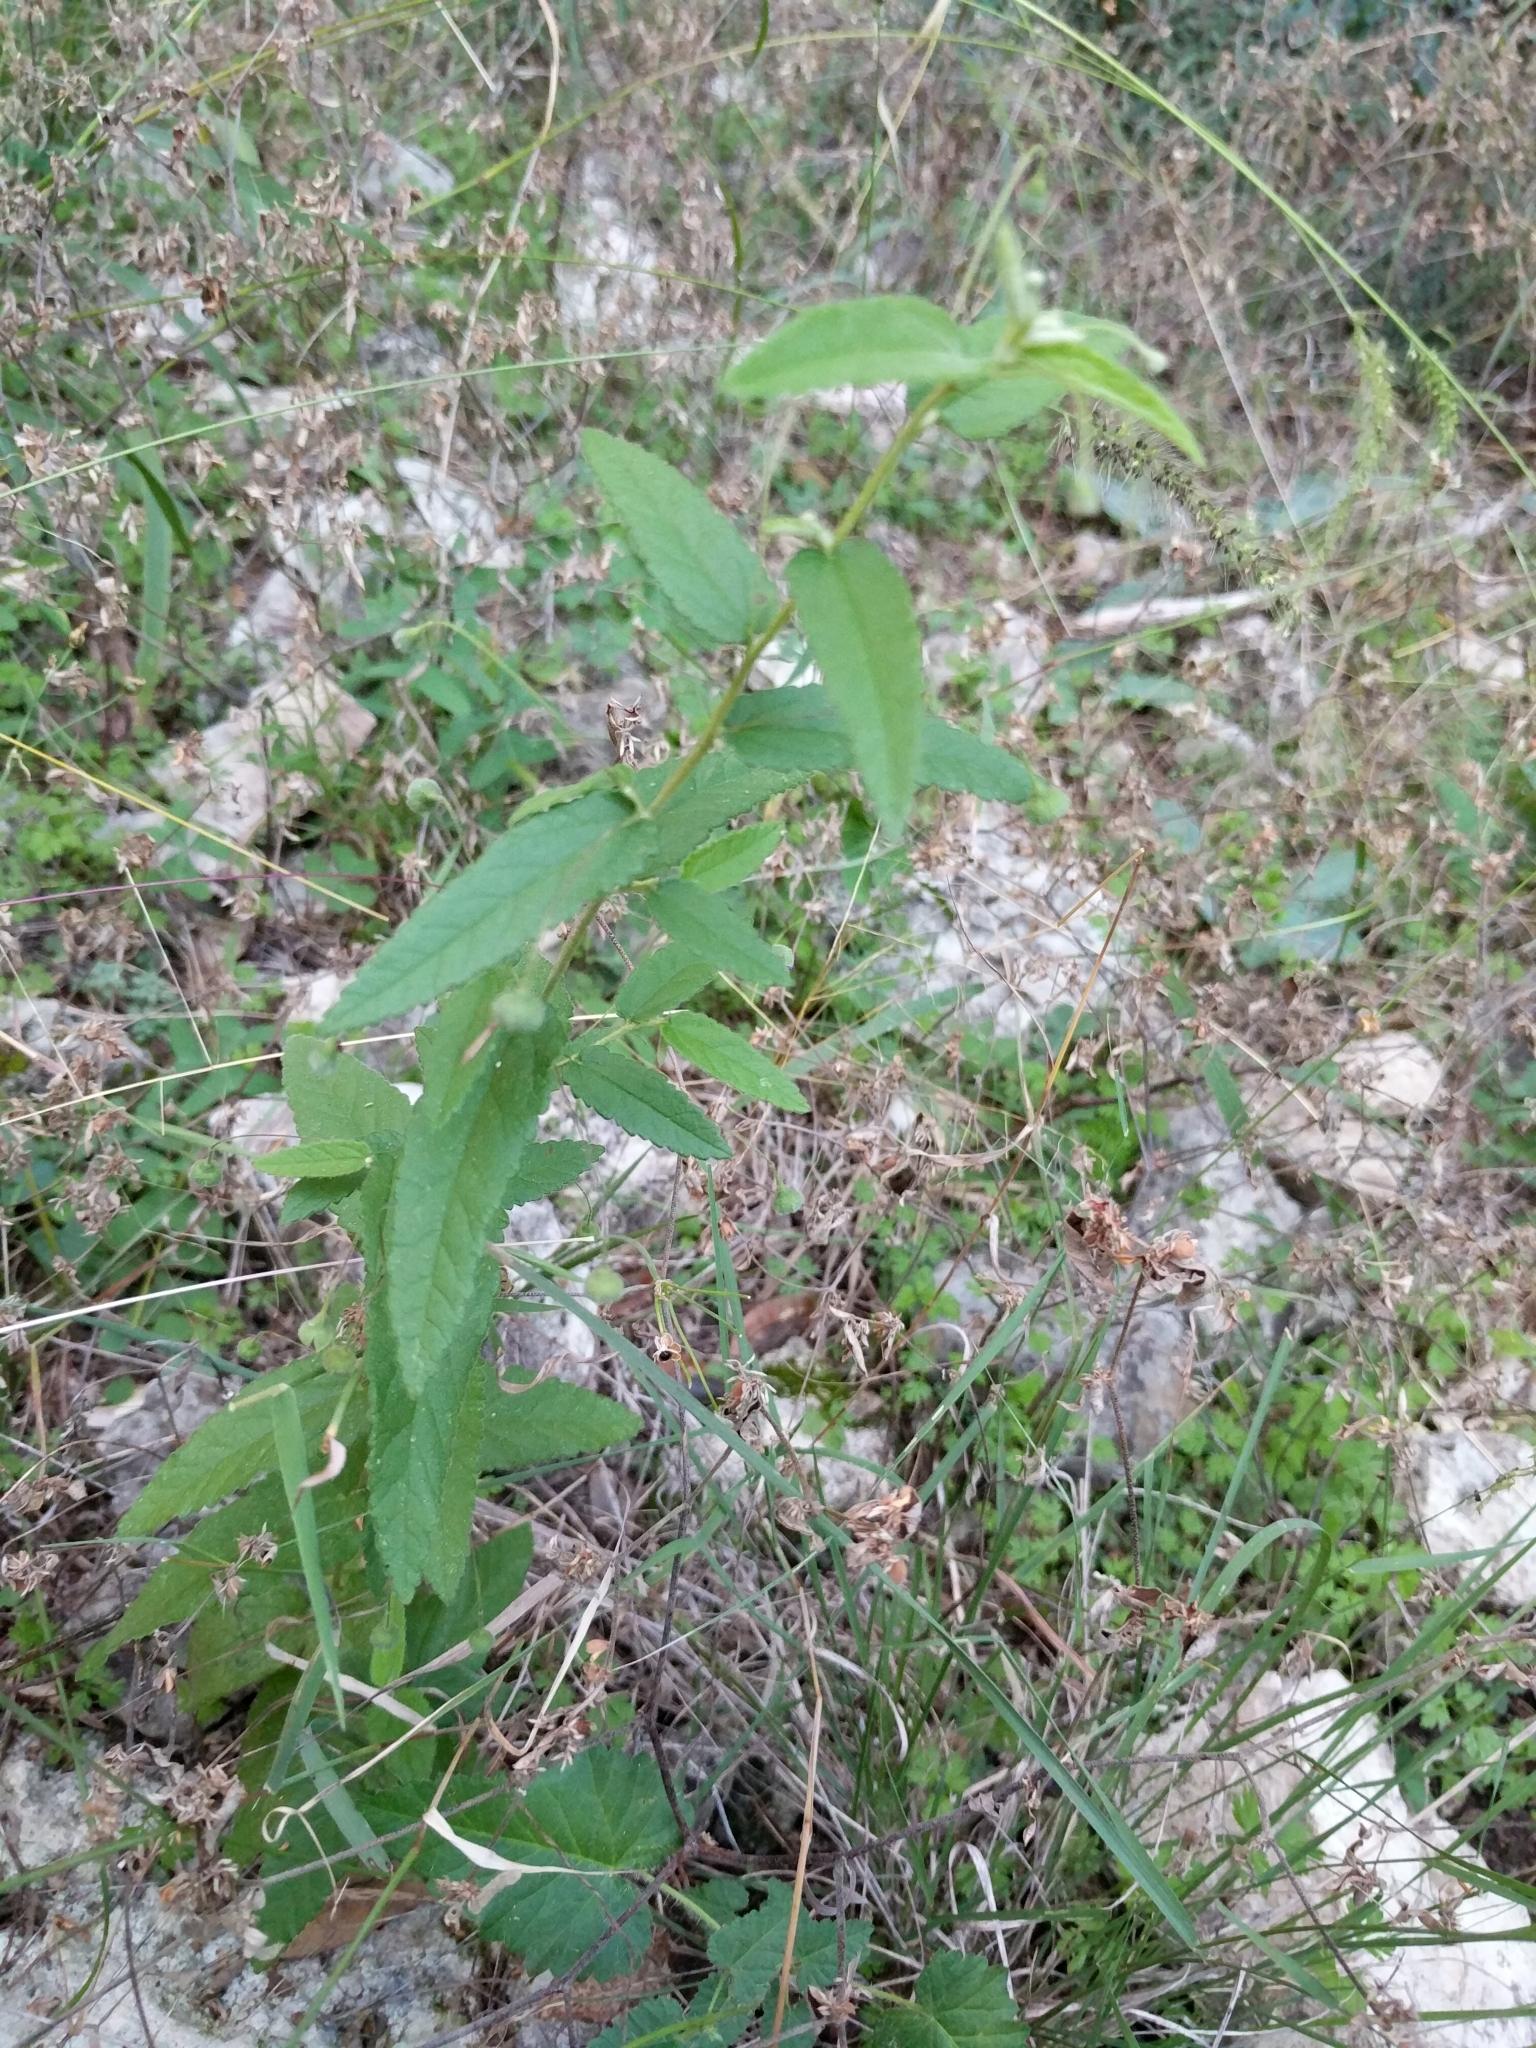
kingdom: Plantae
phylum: Tracheophyta
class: Magnoliopsida
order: Malvales
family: Malvaceae
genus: Meximalva
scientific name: Meximalva filipes
